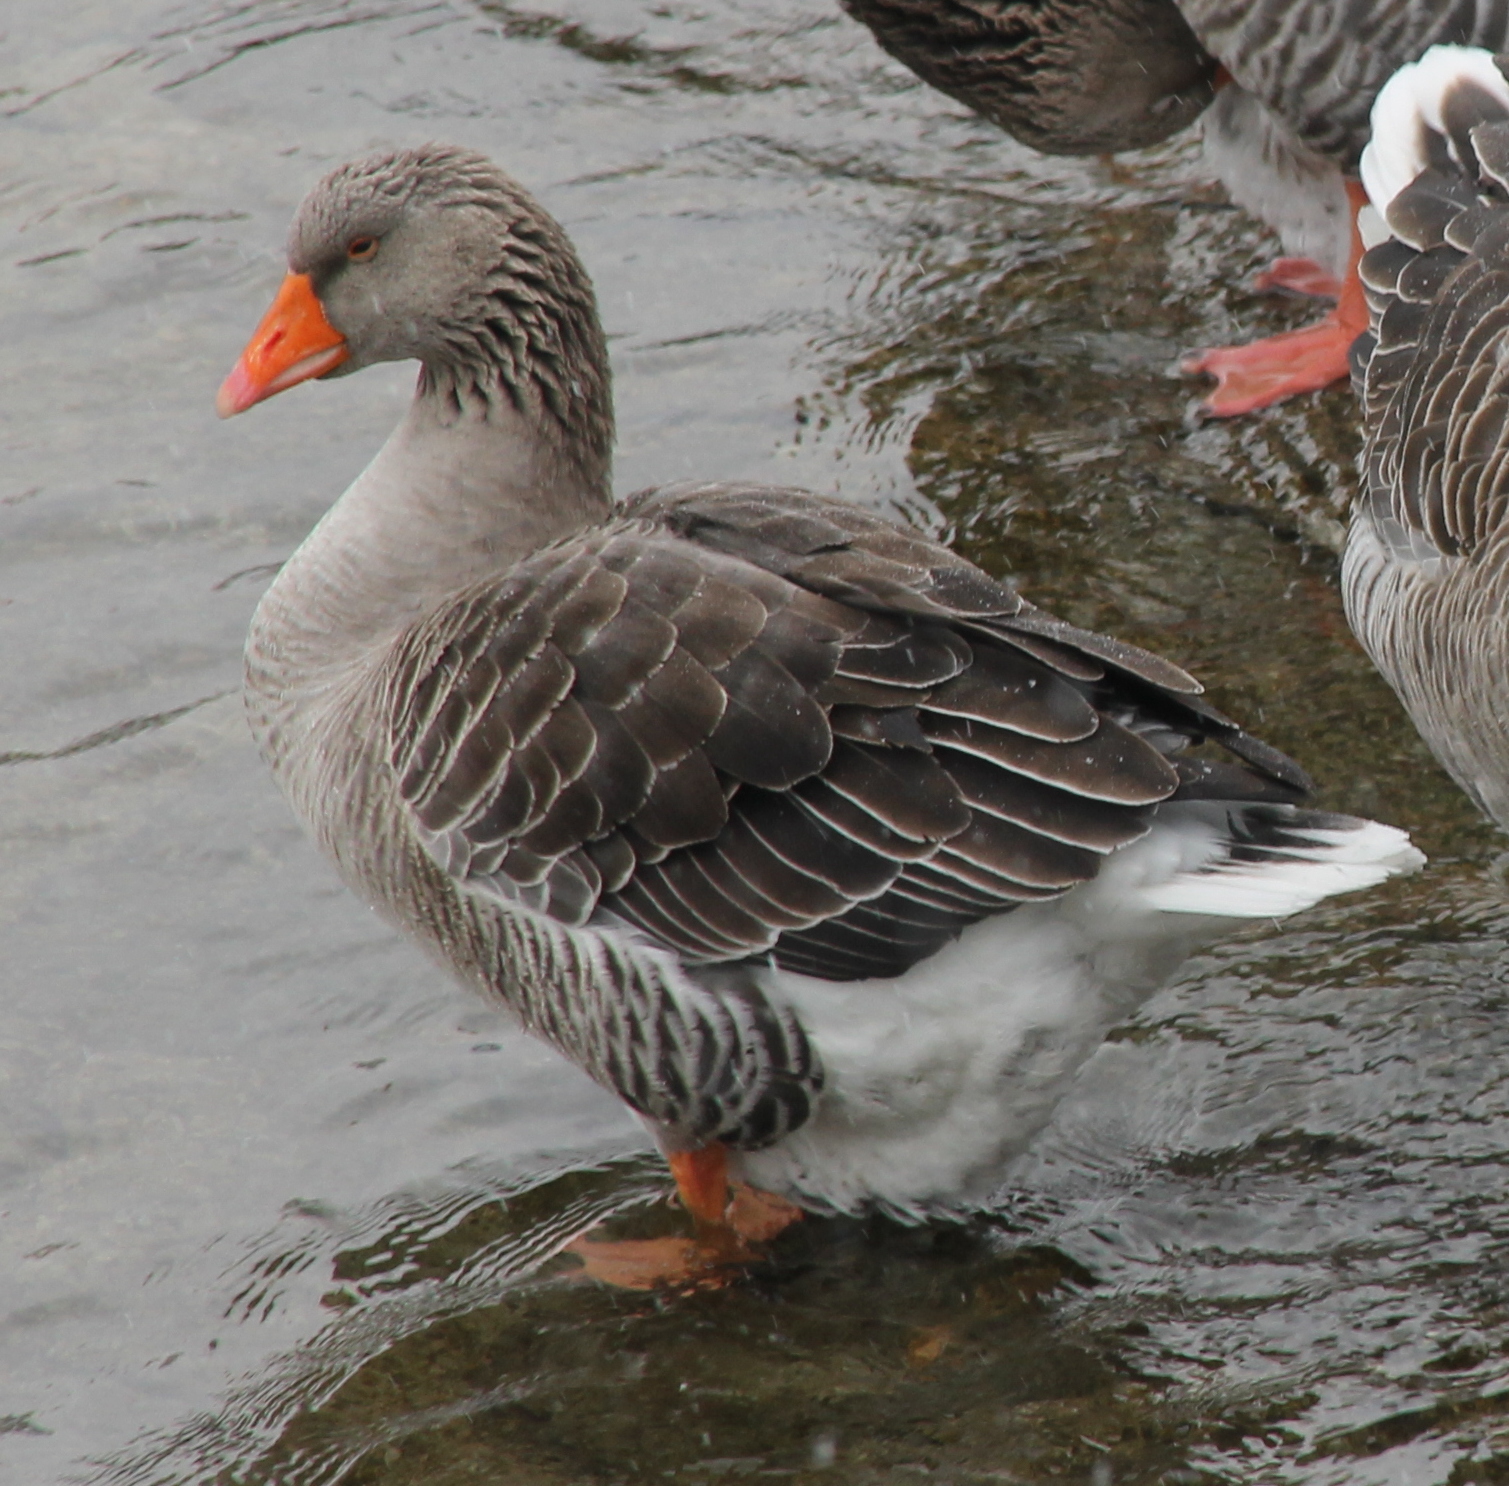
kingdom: Animalia
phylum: Chordata
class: Aves
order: Anseriformes
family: Anatidae
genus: Anser
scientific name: Anser anser
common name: Greylag goose
